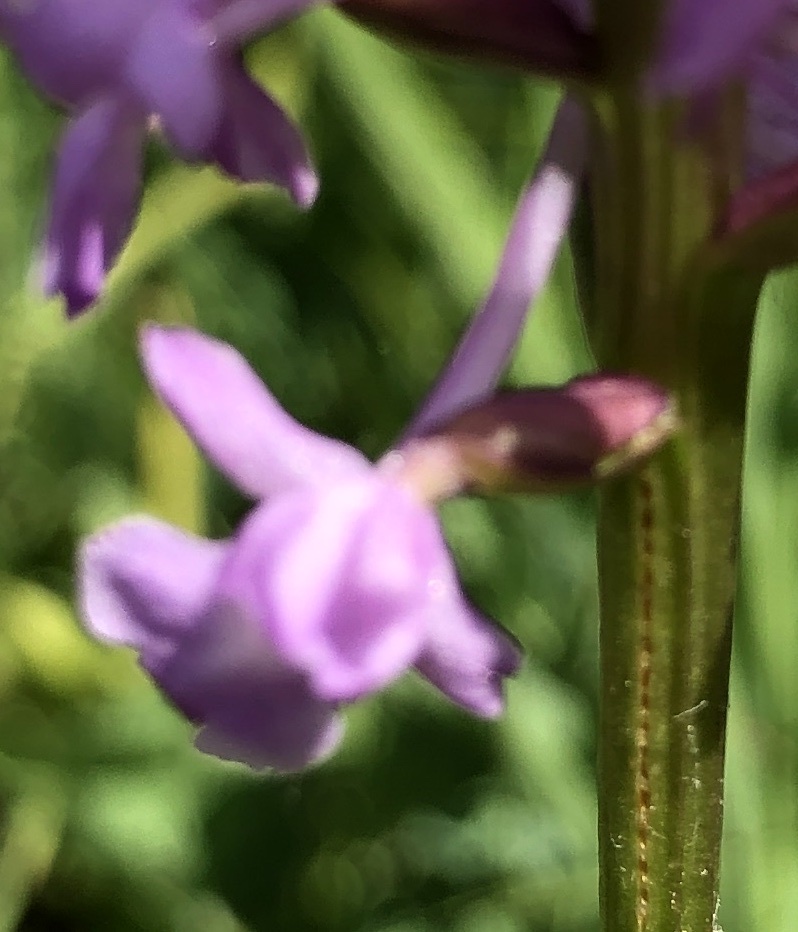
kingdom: Plantae
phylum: Tracheophyta
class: Liliopsida
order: Asparagales
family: Orchidaceae
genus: Gymnadenia
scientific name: Gymnadenia conopsea
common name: Fragrant orchid
